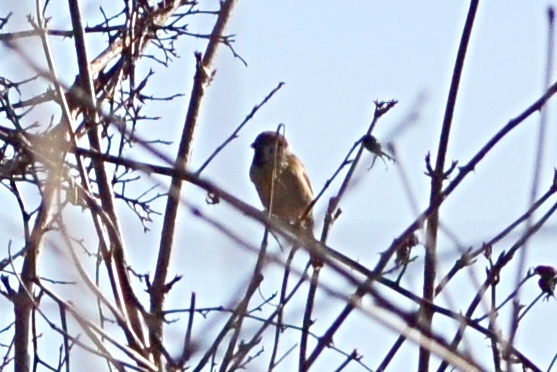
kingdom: Animalia
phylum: Chordata
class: Aves
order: Passeriformes
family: Passeridae
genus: Passer
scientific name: Passer montanus
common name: Eurasian tree sparrow
